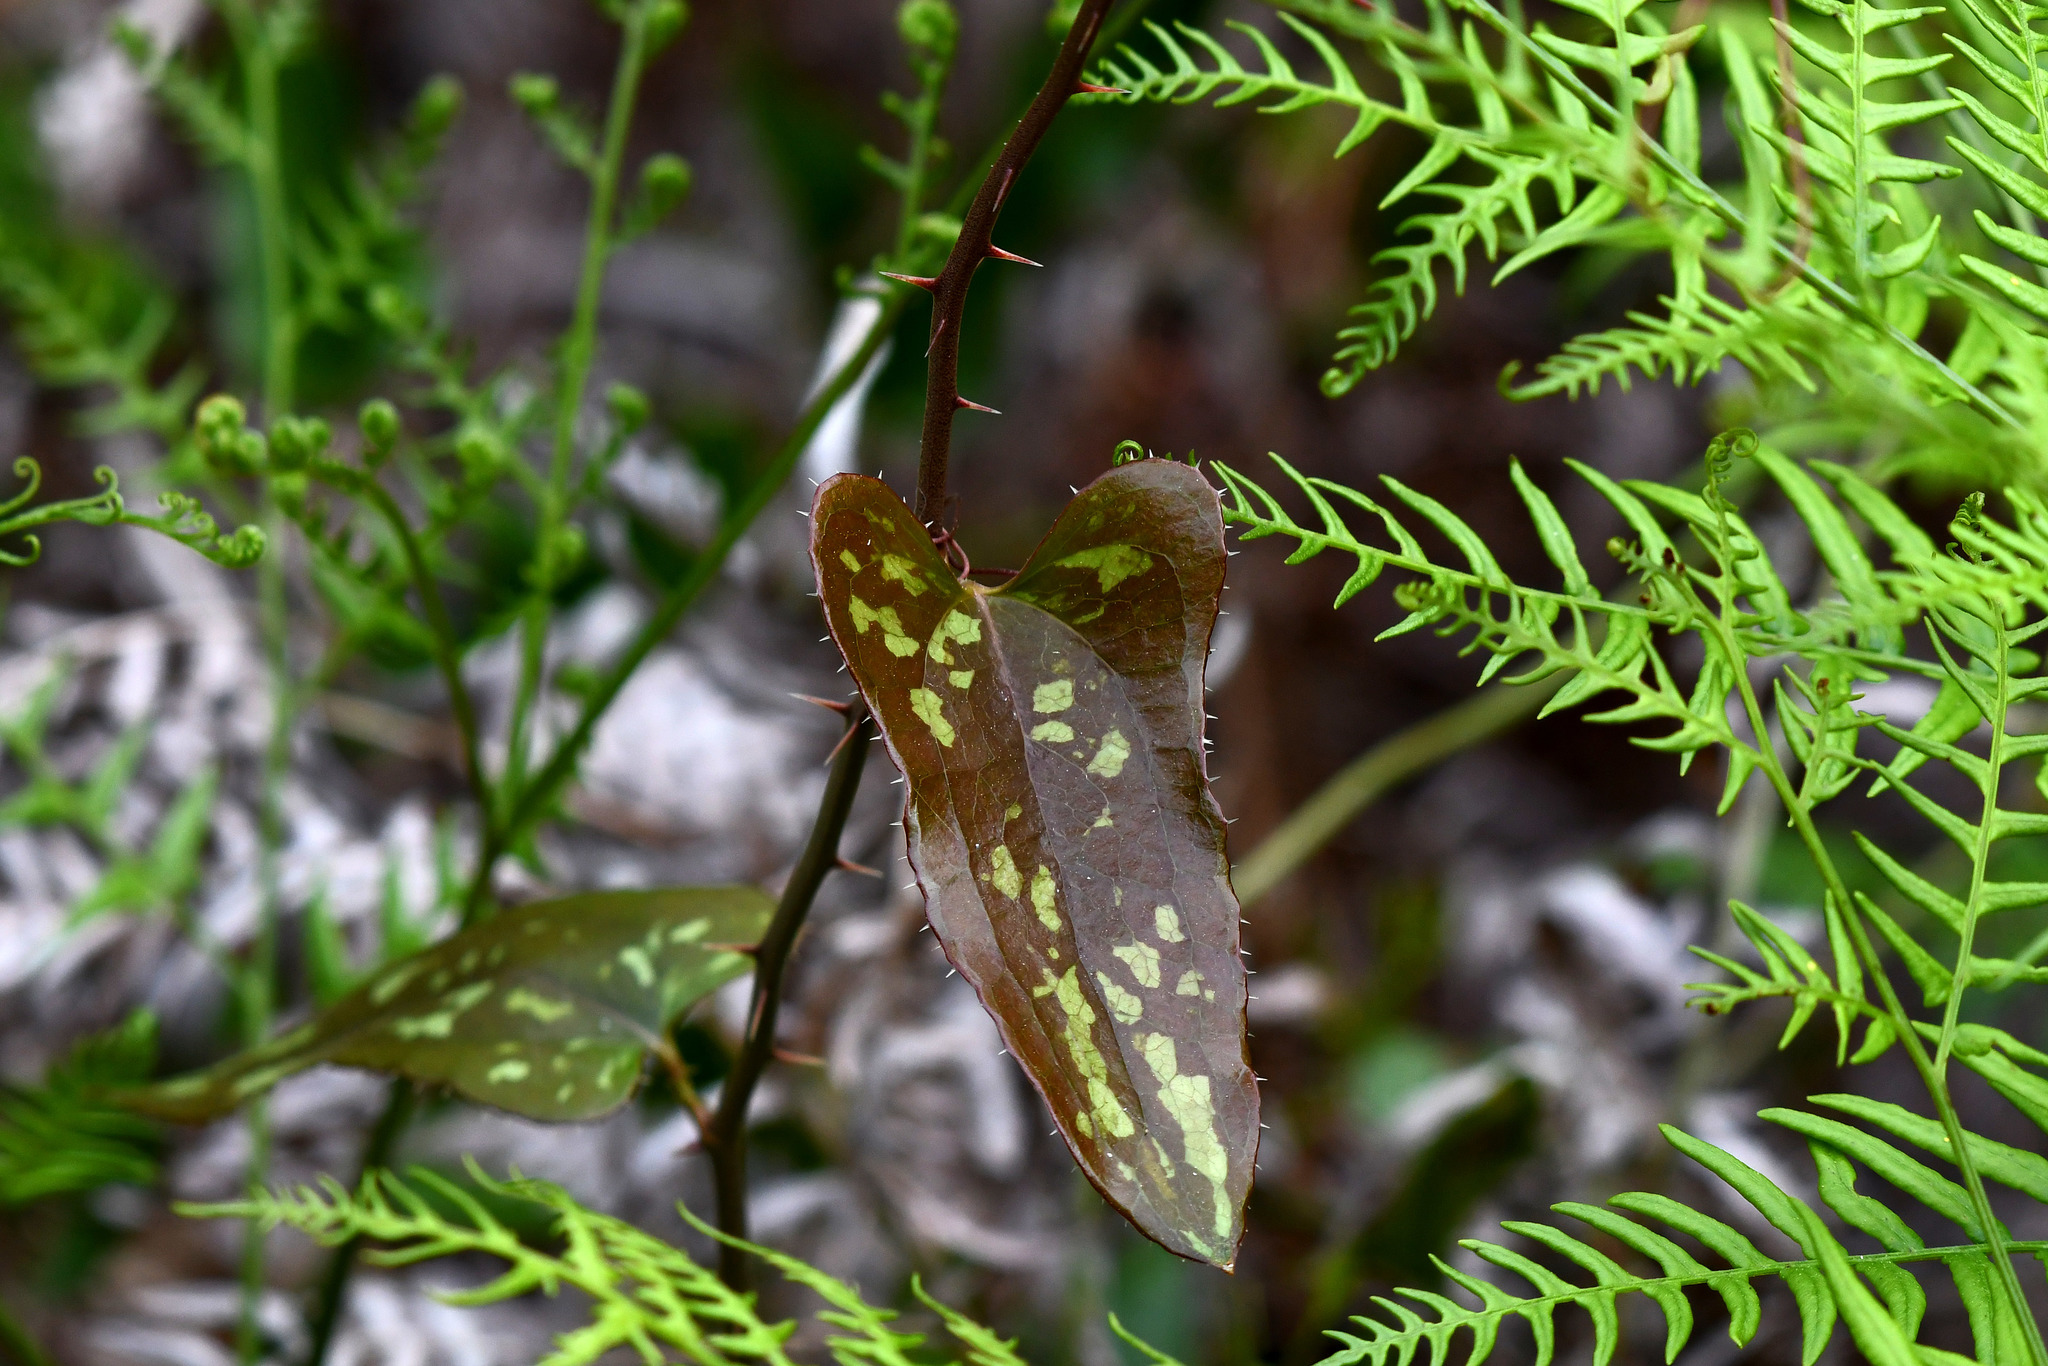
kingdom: Plantae
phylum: Tracheophyta
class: Liliopsida
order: Liliales
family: Smilacaceae
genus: Smilax
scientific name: Smilax bona-nox
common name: Catbrier
